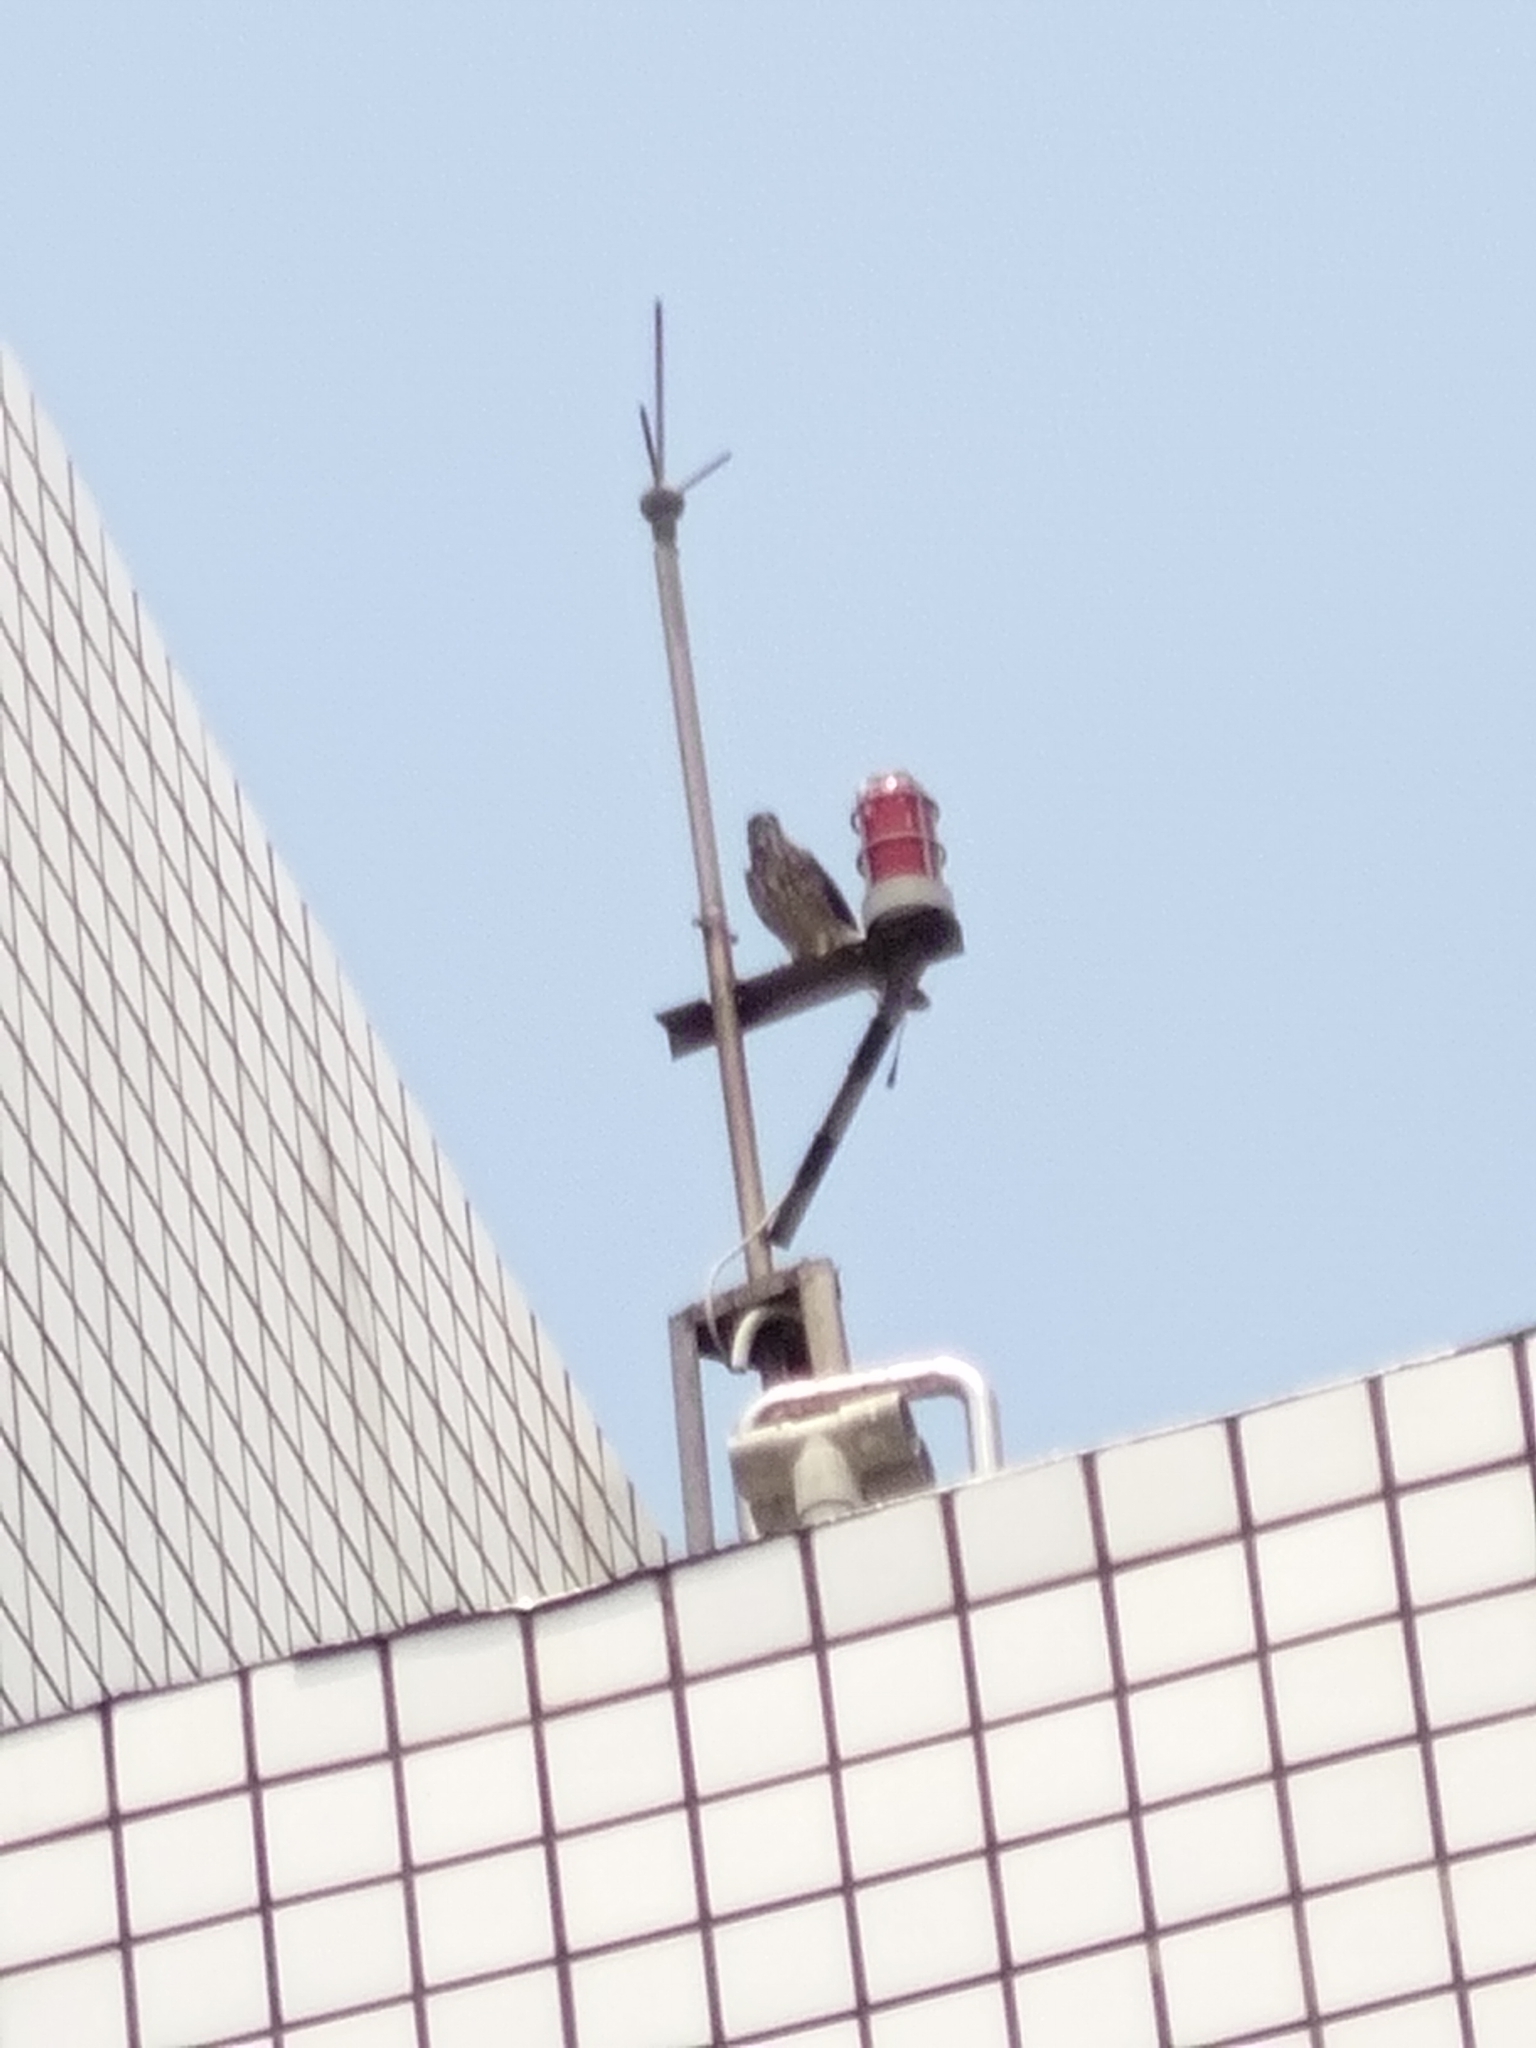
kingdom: Animalia
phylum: Chordata
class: Aves
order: Accipitriformes
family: Accipitridae
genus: Accipiter
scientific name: Accipiter trivirgatus
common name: Crested goshawk
